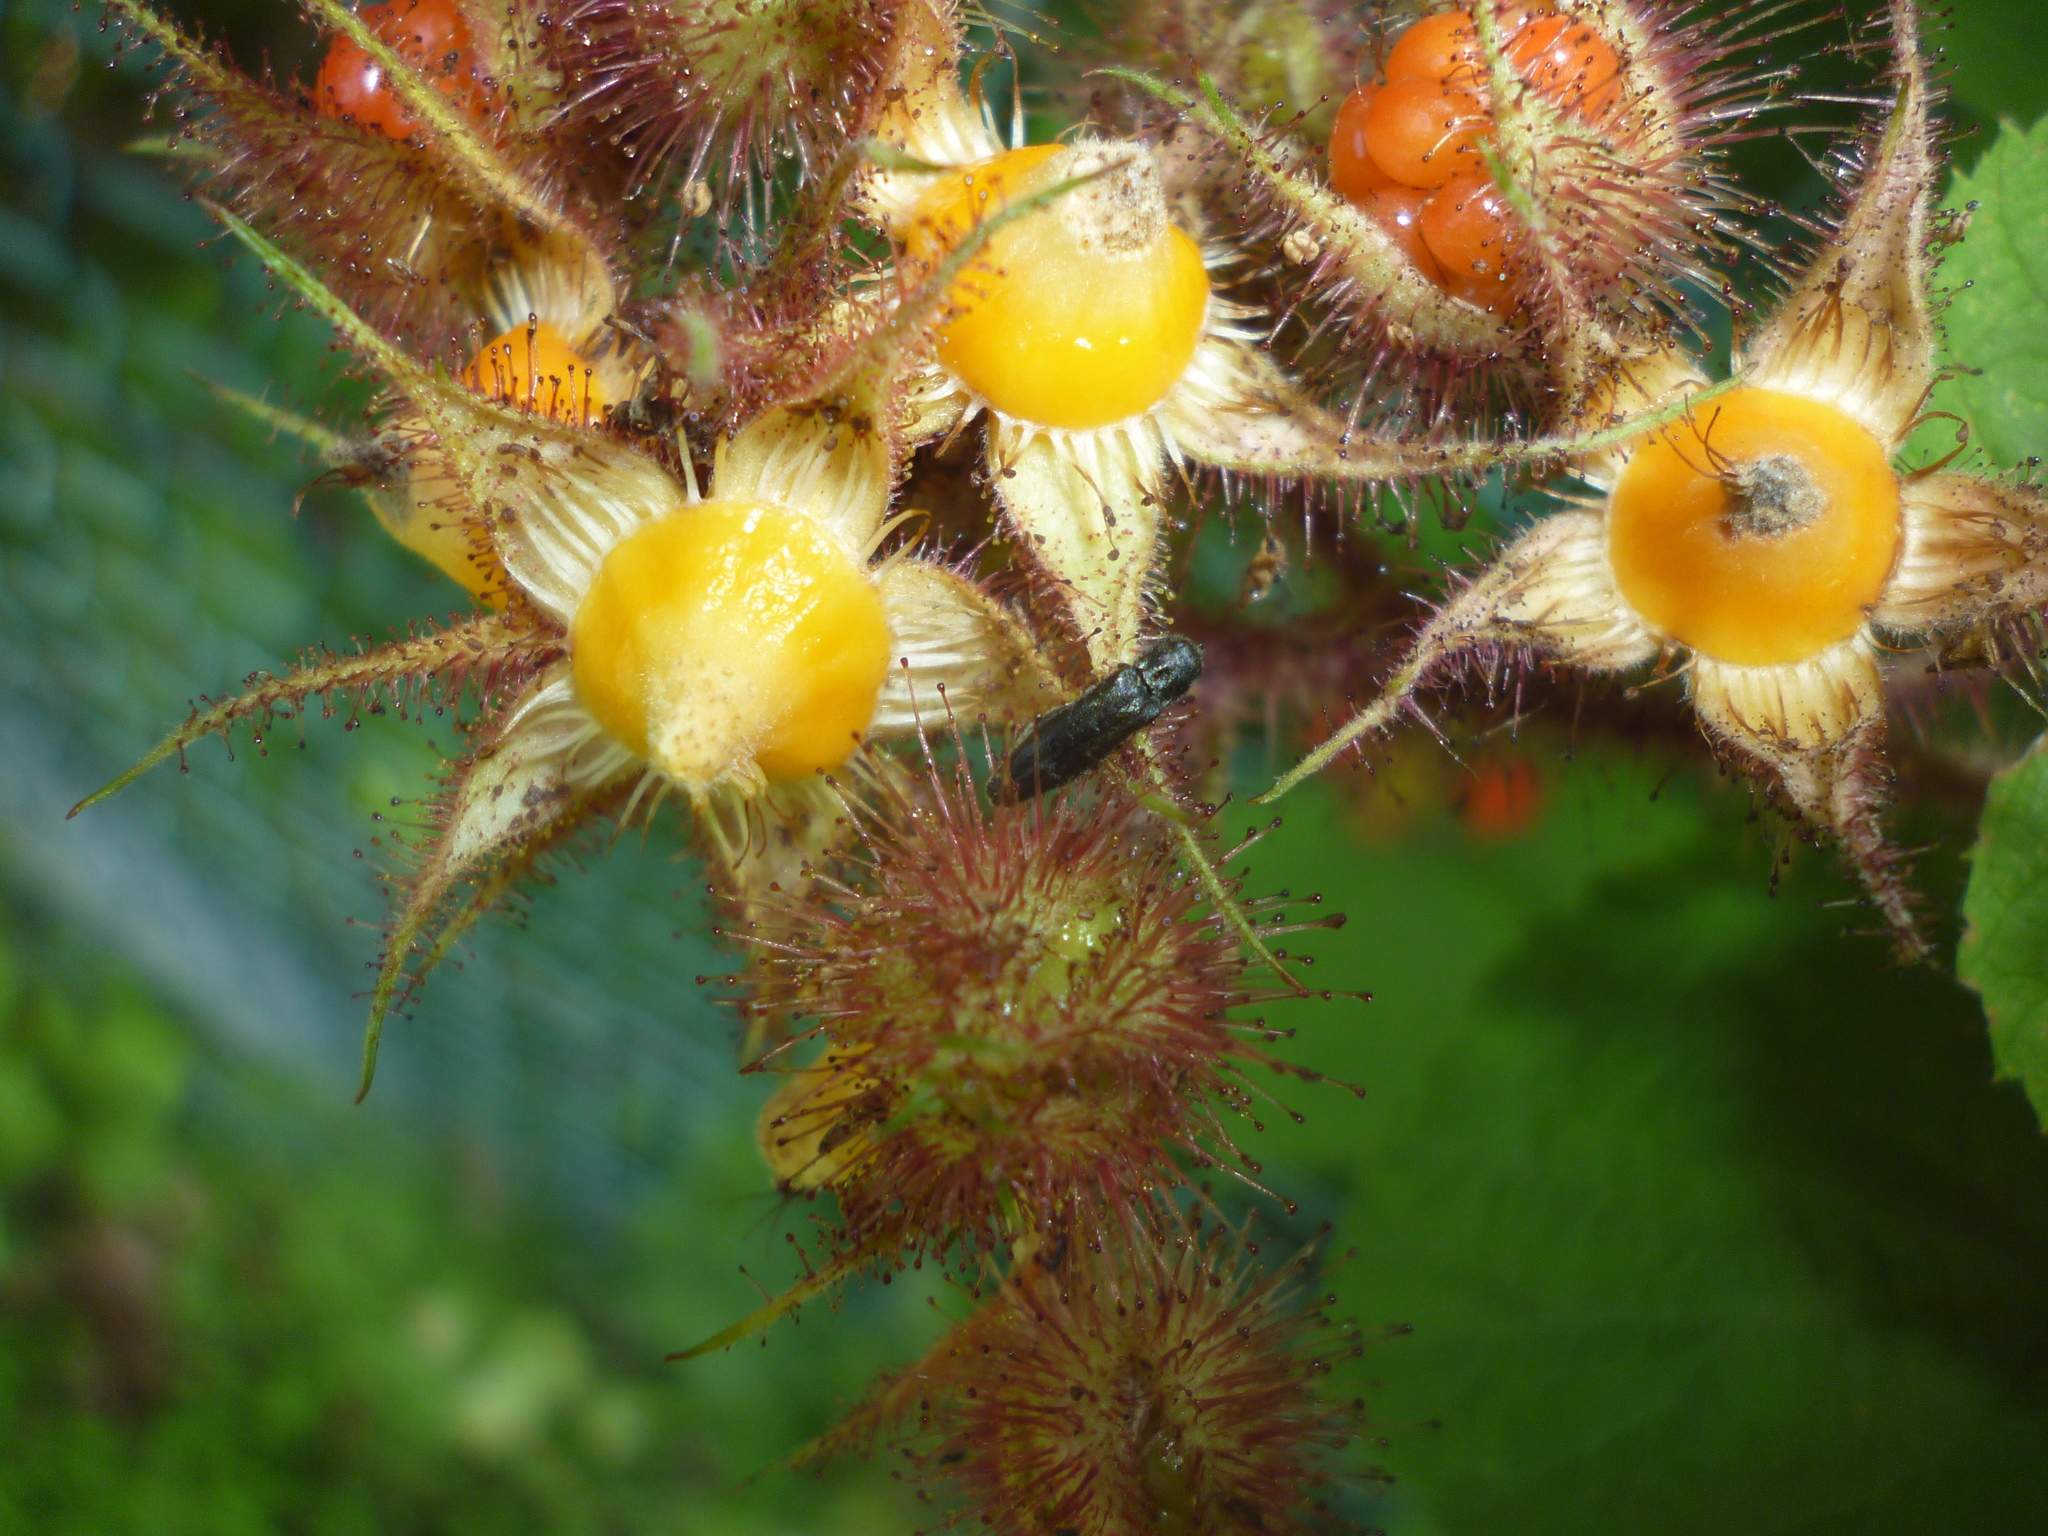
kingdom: Plantae
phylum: Tracheophyta
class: Magnoliopsida
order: Rosales
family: Rosaceae
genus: Rubus
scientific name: Rubus phoenicolasius
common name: Japanese wineberry
